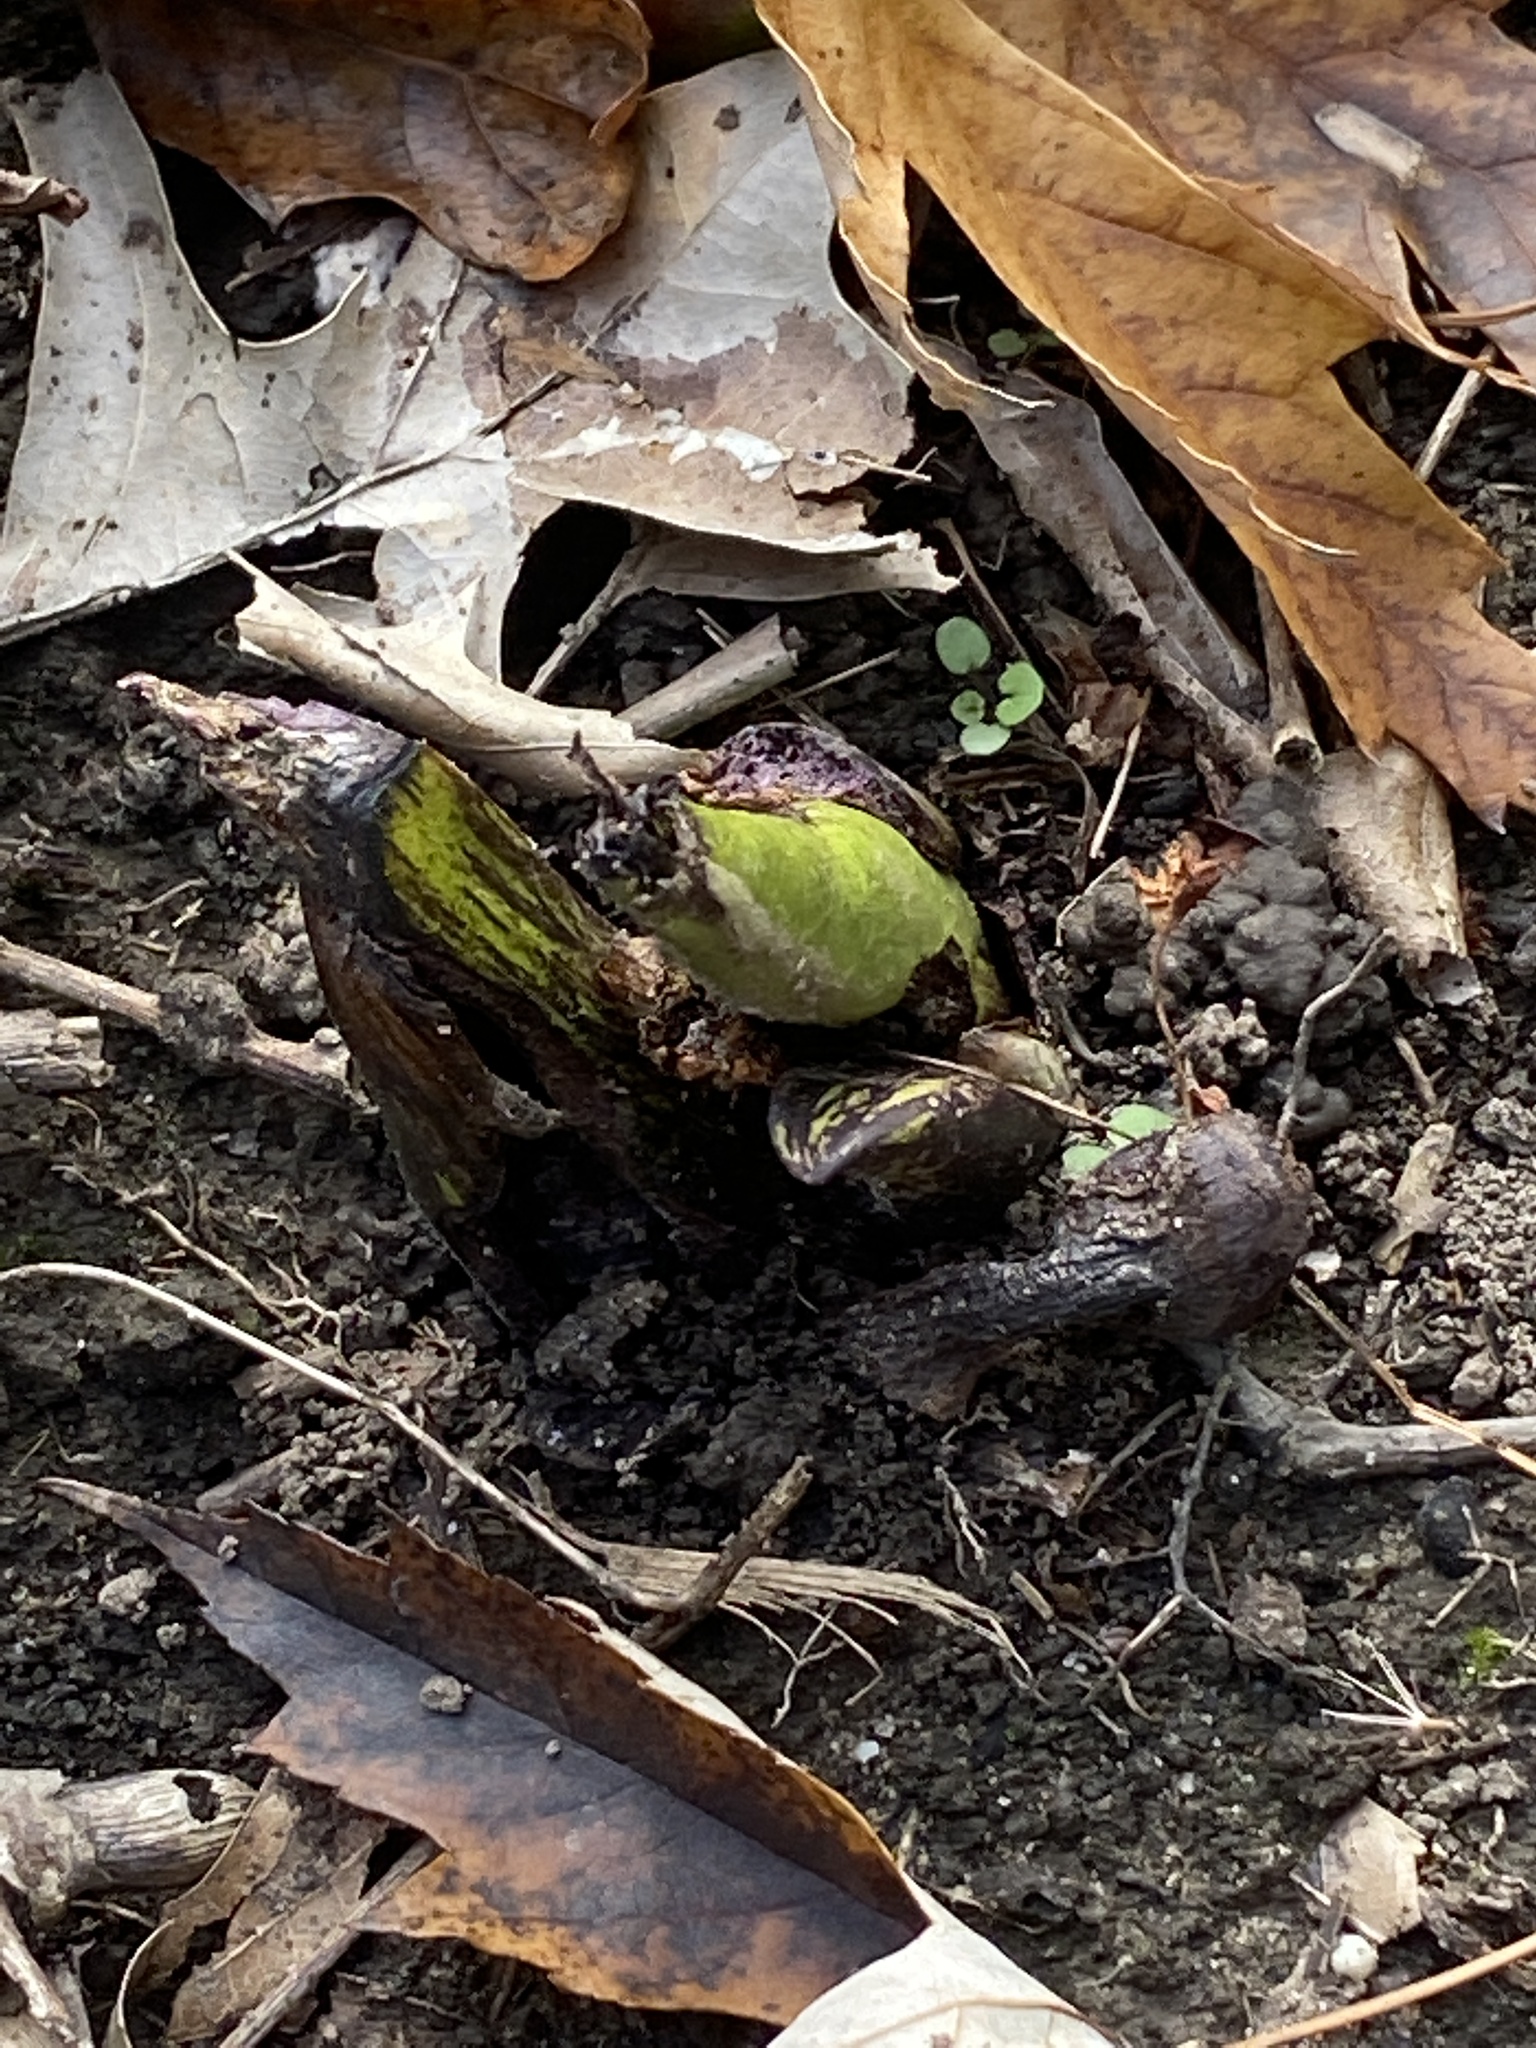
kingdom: Plantae
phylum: Tracheophyta
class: Liliopsida
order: Alismatales
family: Araceae
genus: Symplocarpus
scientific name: Symplocarpus foetidus
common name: Eastern skunk cabbage
